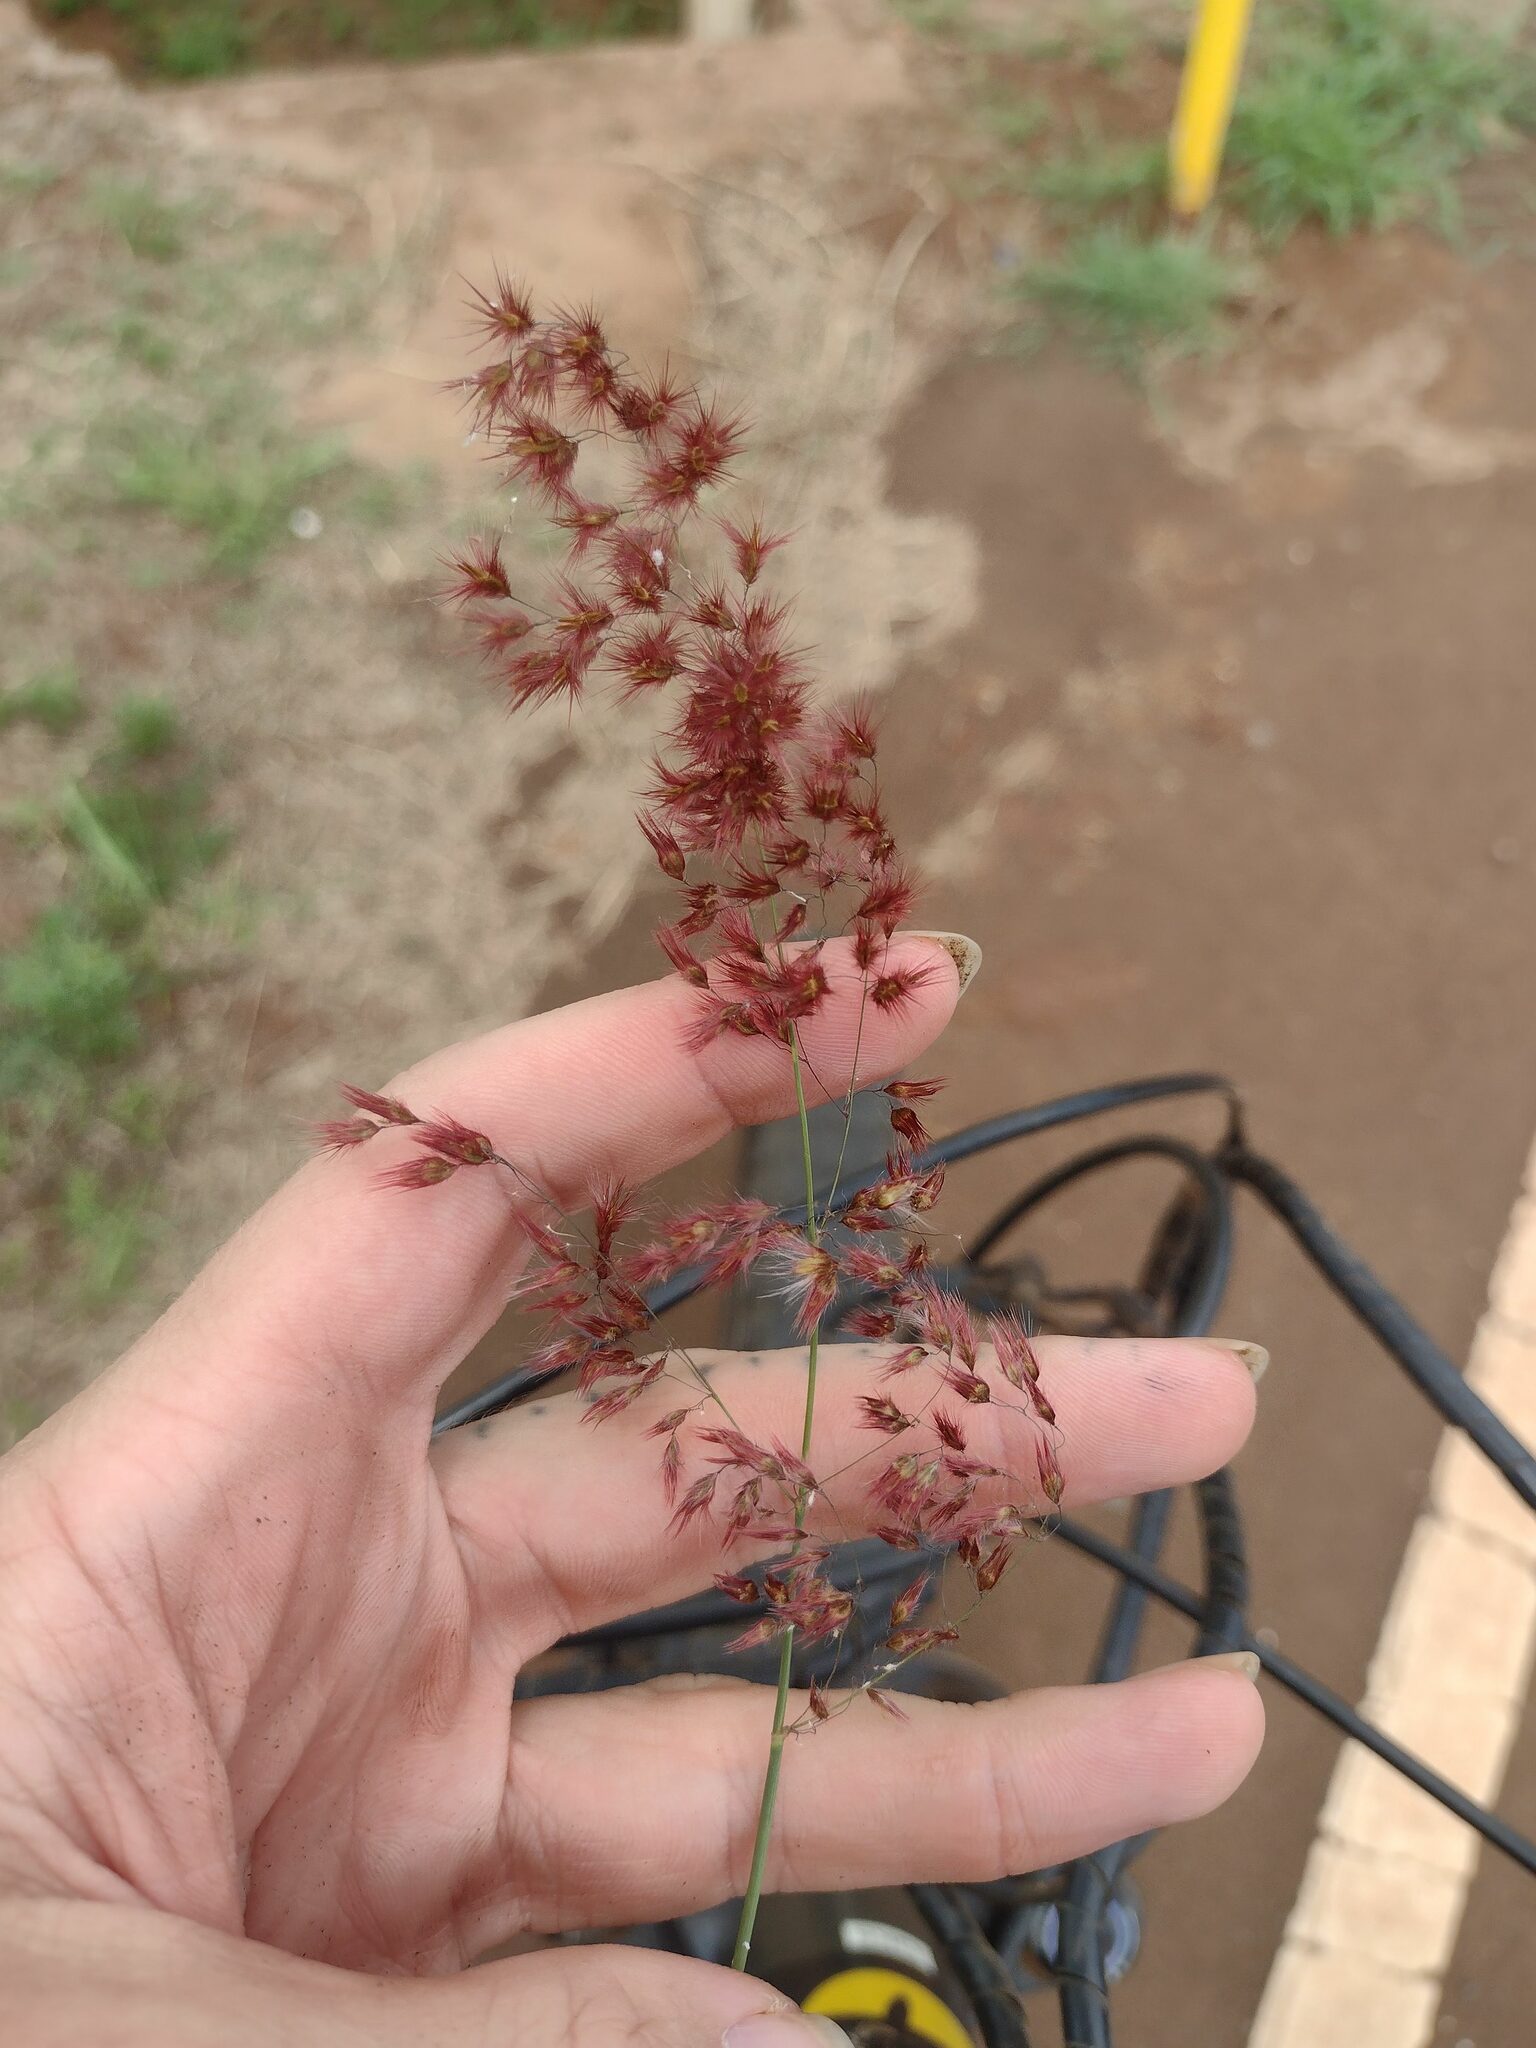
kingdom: Plantae
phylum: Tracheophyta
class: Liliopsida
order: Poales
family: Poaceae
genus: Melinis
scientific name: Melinis repens
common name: Rose natal grass
